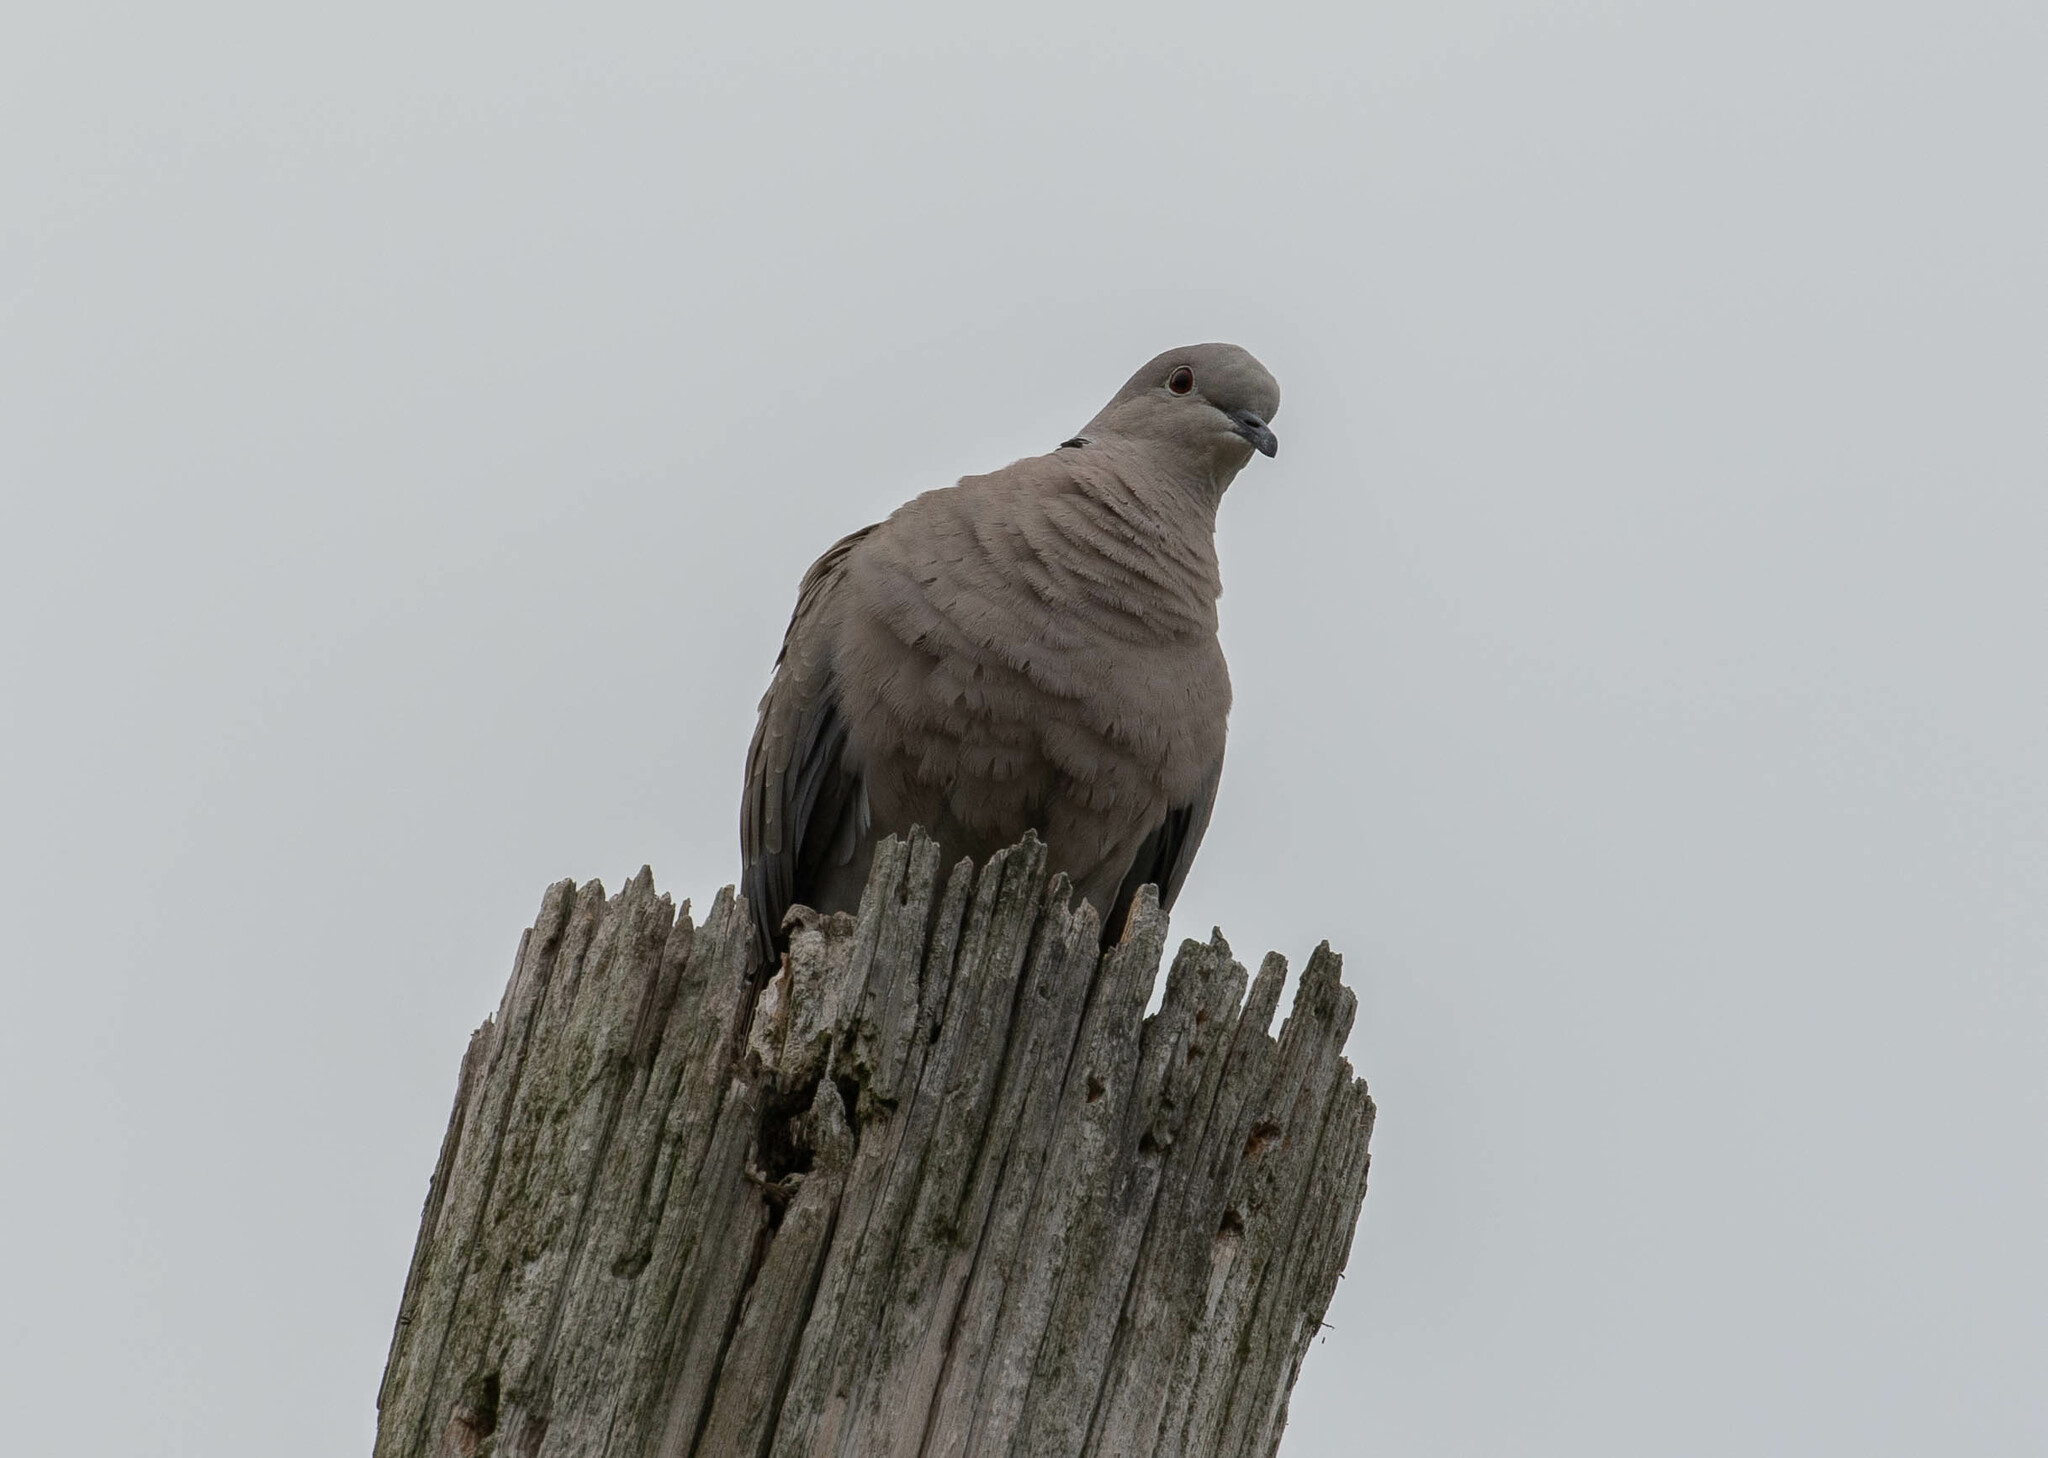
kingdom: Animalia
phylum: Chordata
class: Aves
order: Columbiformes
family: Columbidae
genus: Streptopelia
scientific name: Streptopelia decaocto
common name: Eurasian collared dove
